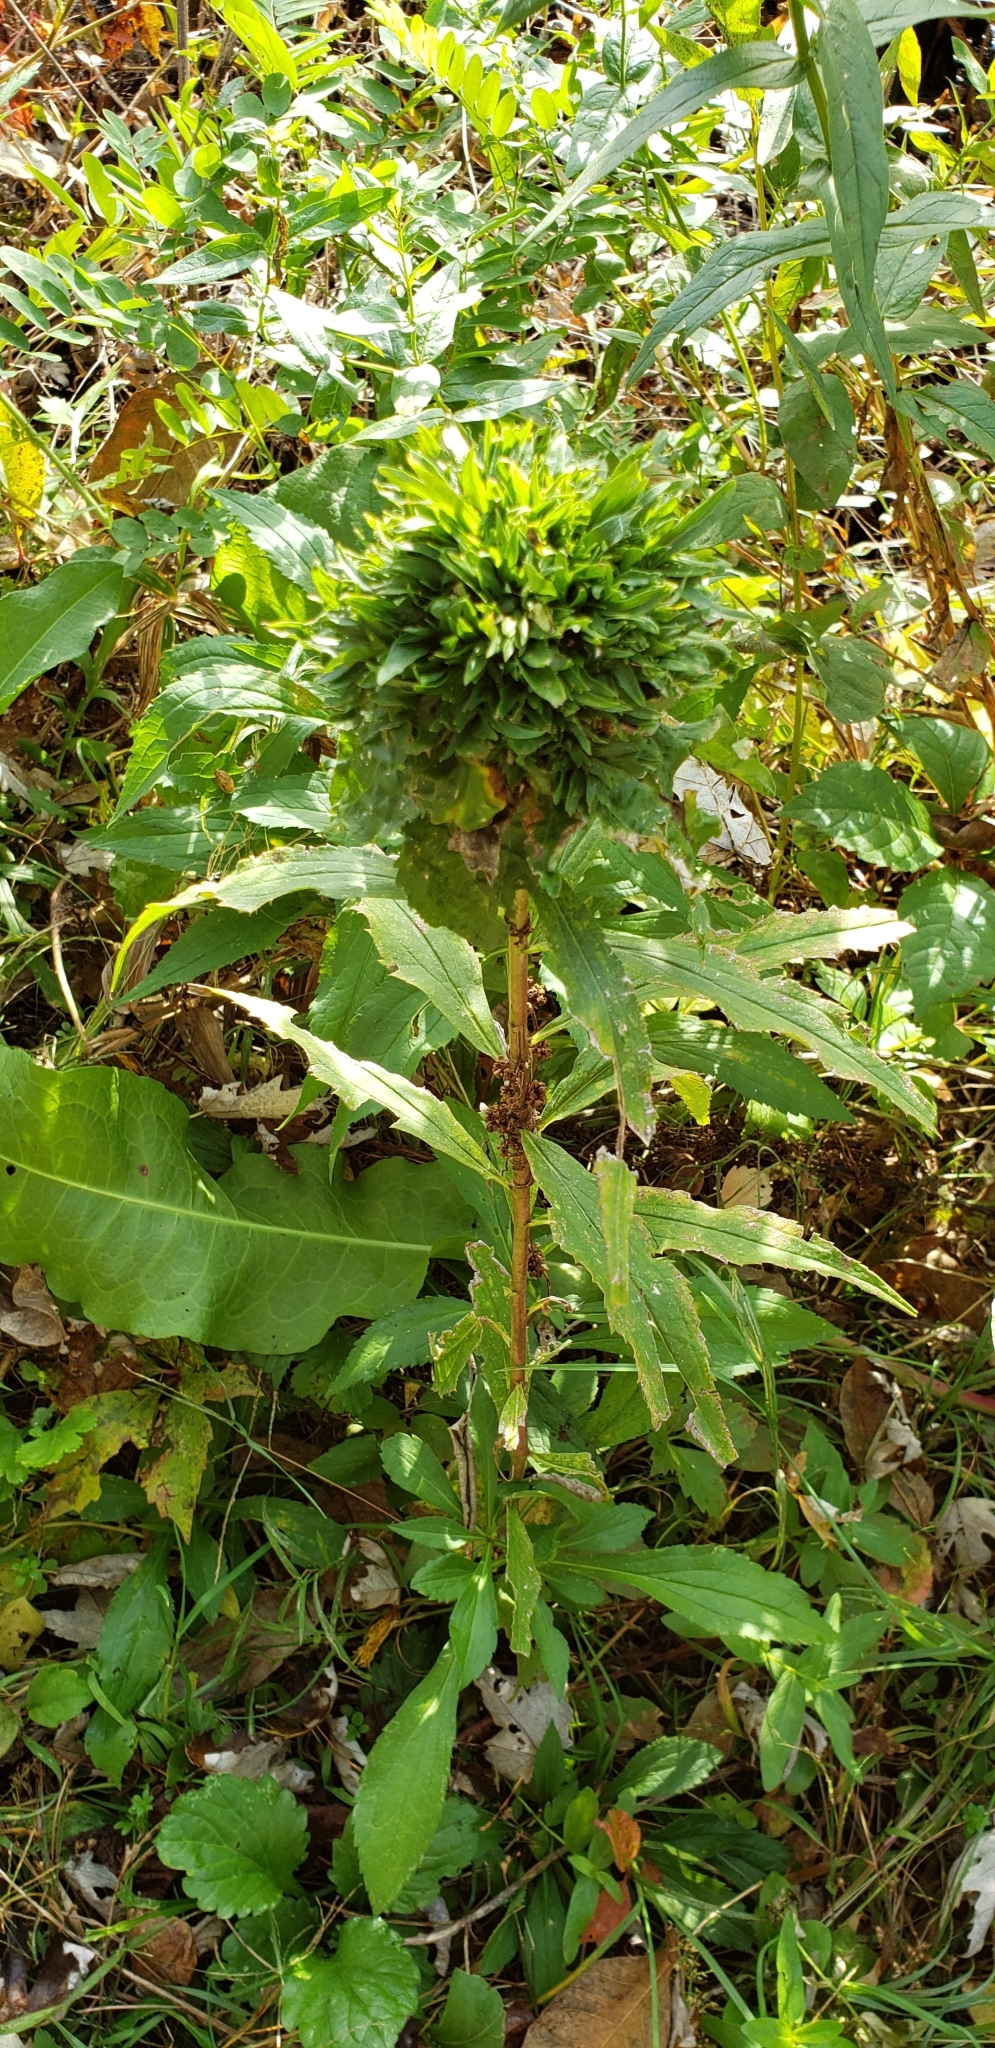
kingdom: Animalia
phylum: Arthropoda
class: Insecta
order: Diptera
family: Cecidomyiidae
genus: Rhopalomyia
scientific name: Rhopalomyia solidaginis
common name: Goldenrod bunch gall midge
